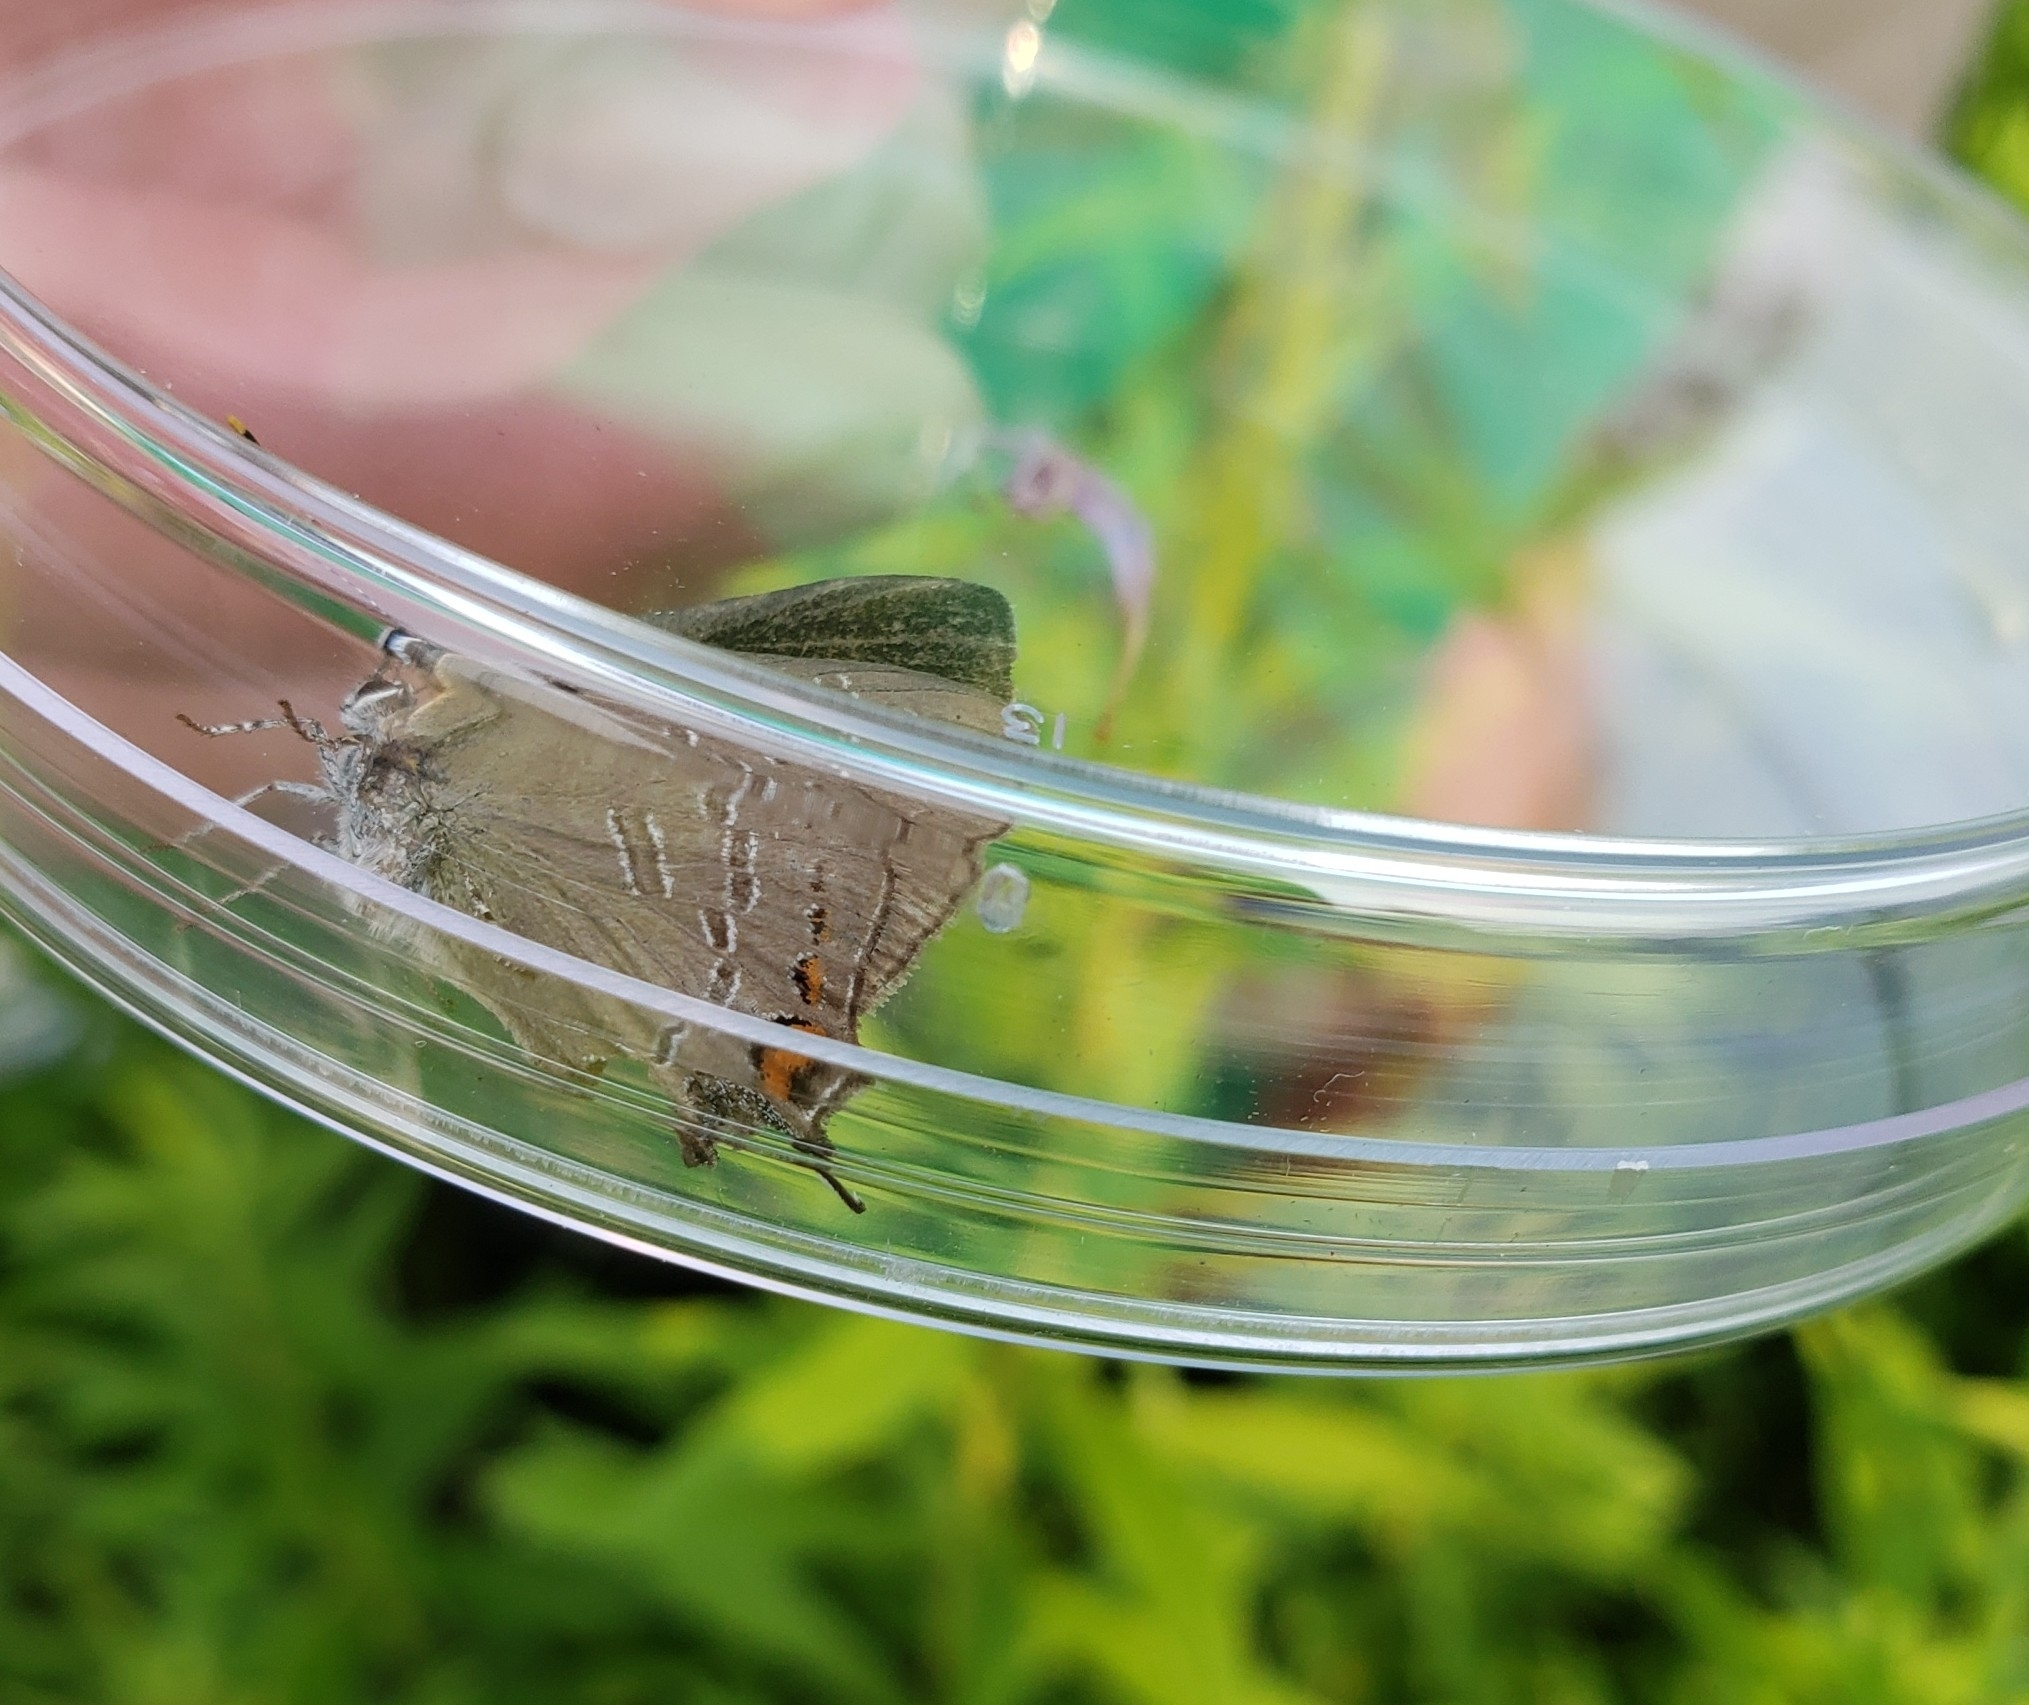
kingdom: Animalia
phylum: Arthropoda
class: Insecta
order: Lepidoptera
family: Lycaenidae
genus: Satyrium
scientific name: Satyrium calanus
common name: Banded hairstreak
